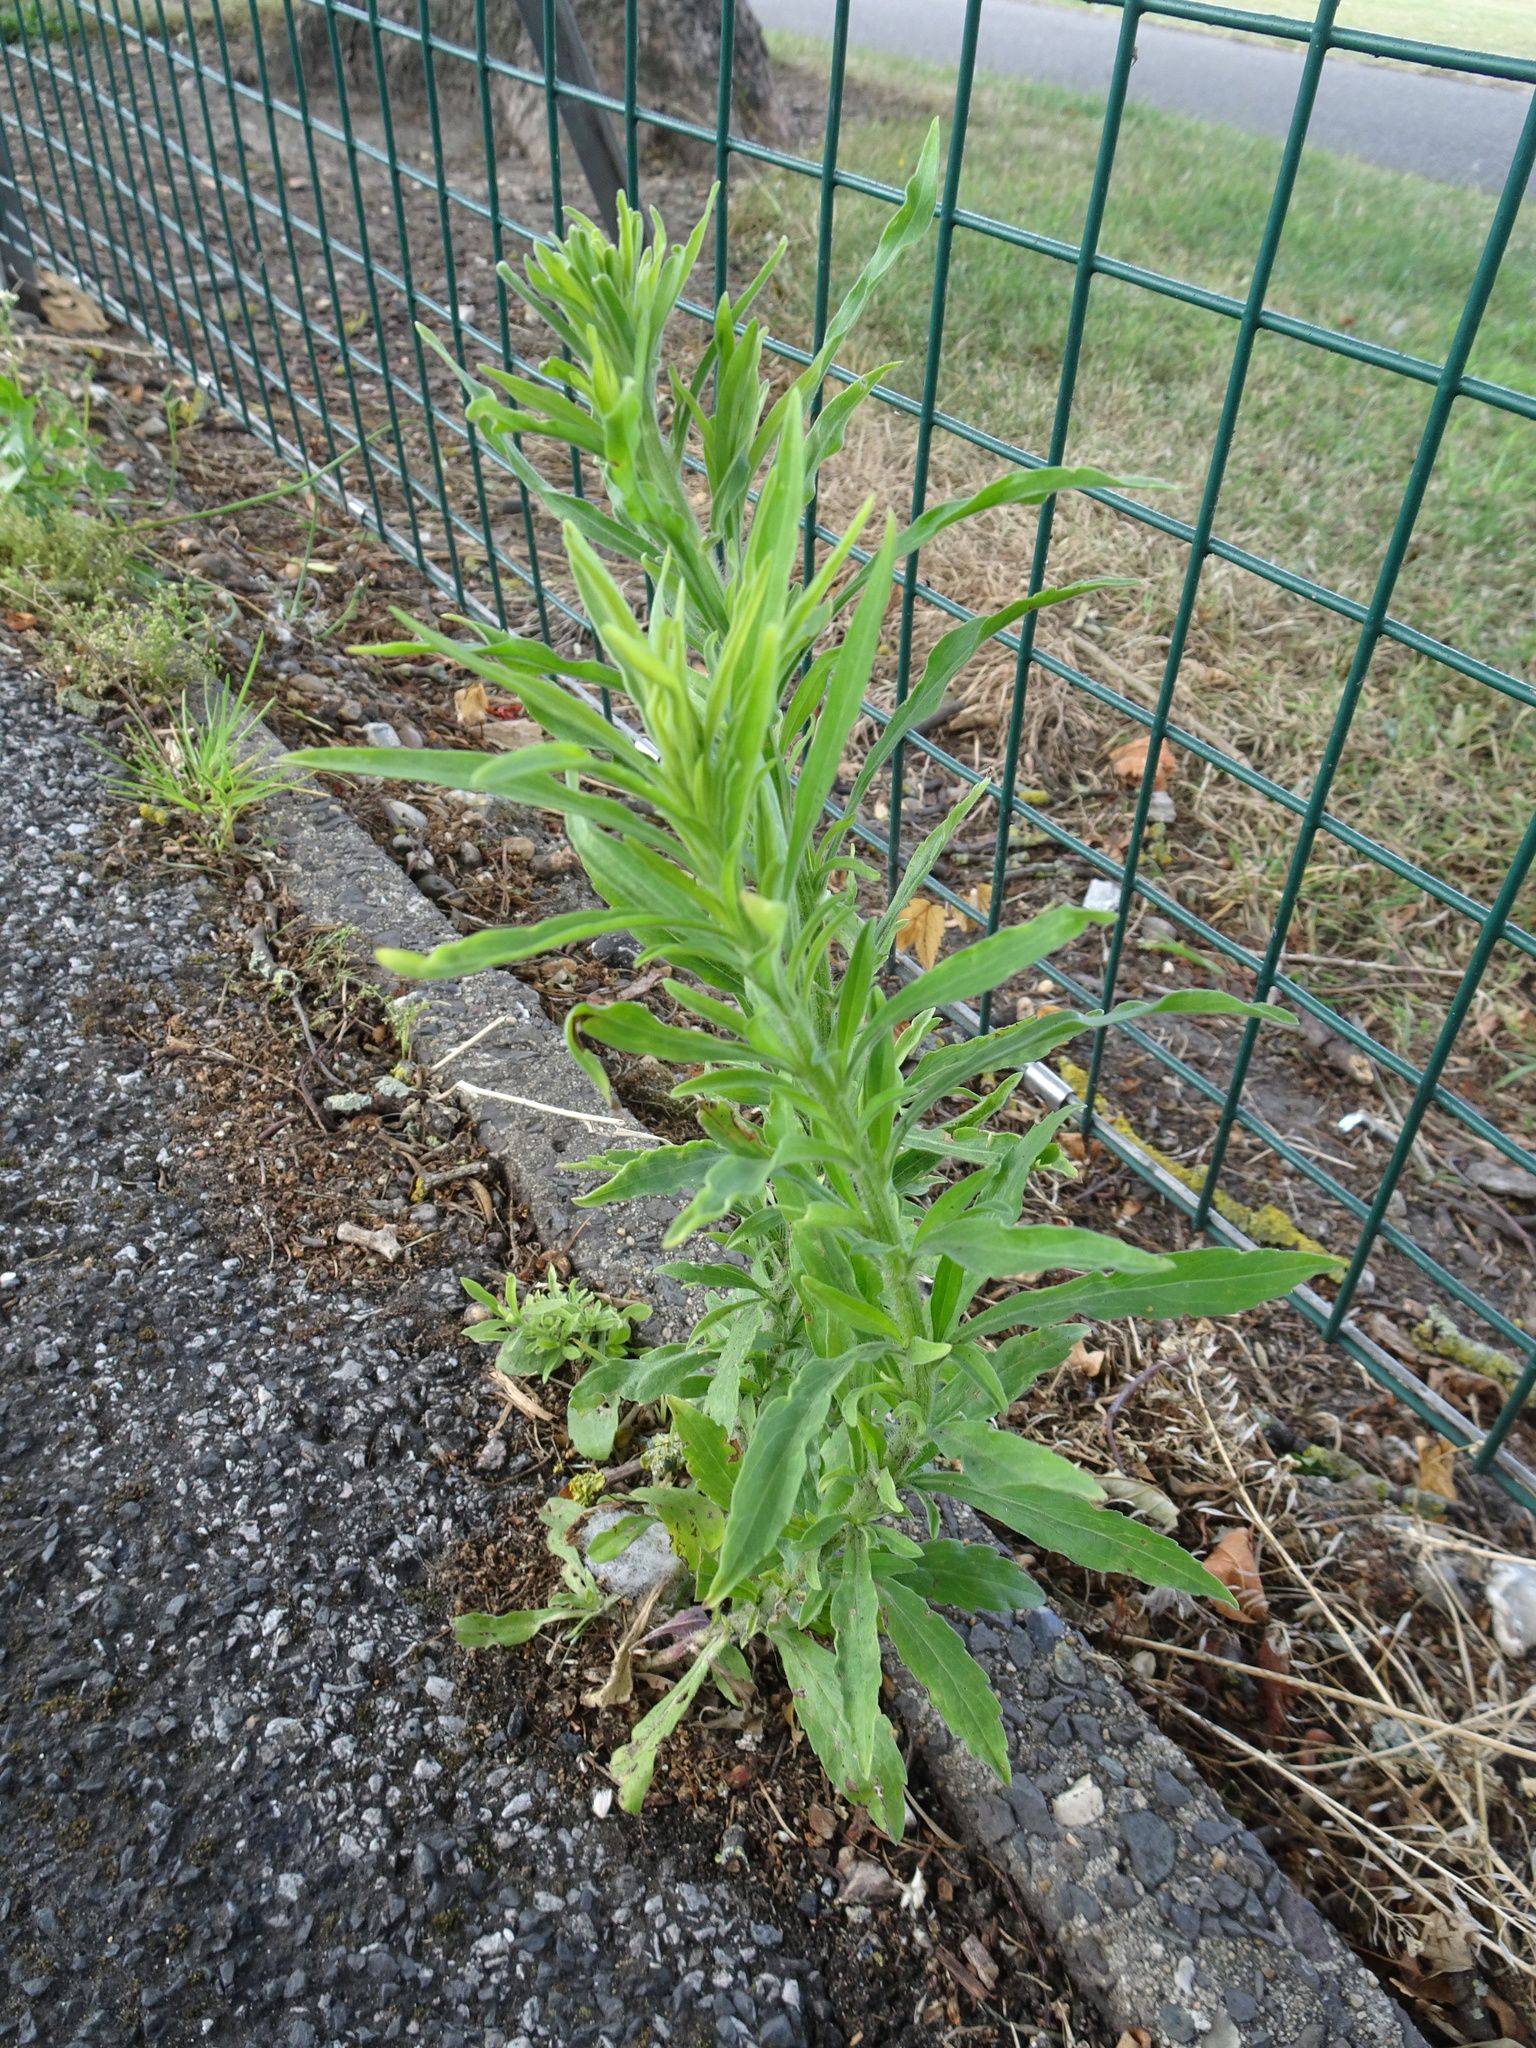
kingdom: Plantae
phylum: Tracheophyta
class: Magnoliopsida
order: Asterales
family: Asteraceae
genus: Erigeron
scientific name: Erigeron sumatrensis
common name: Daisy
